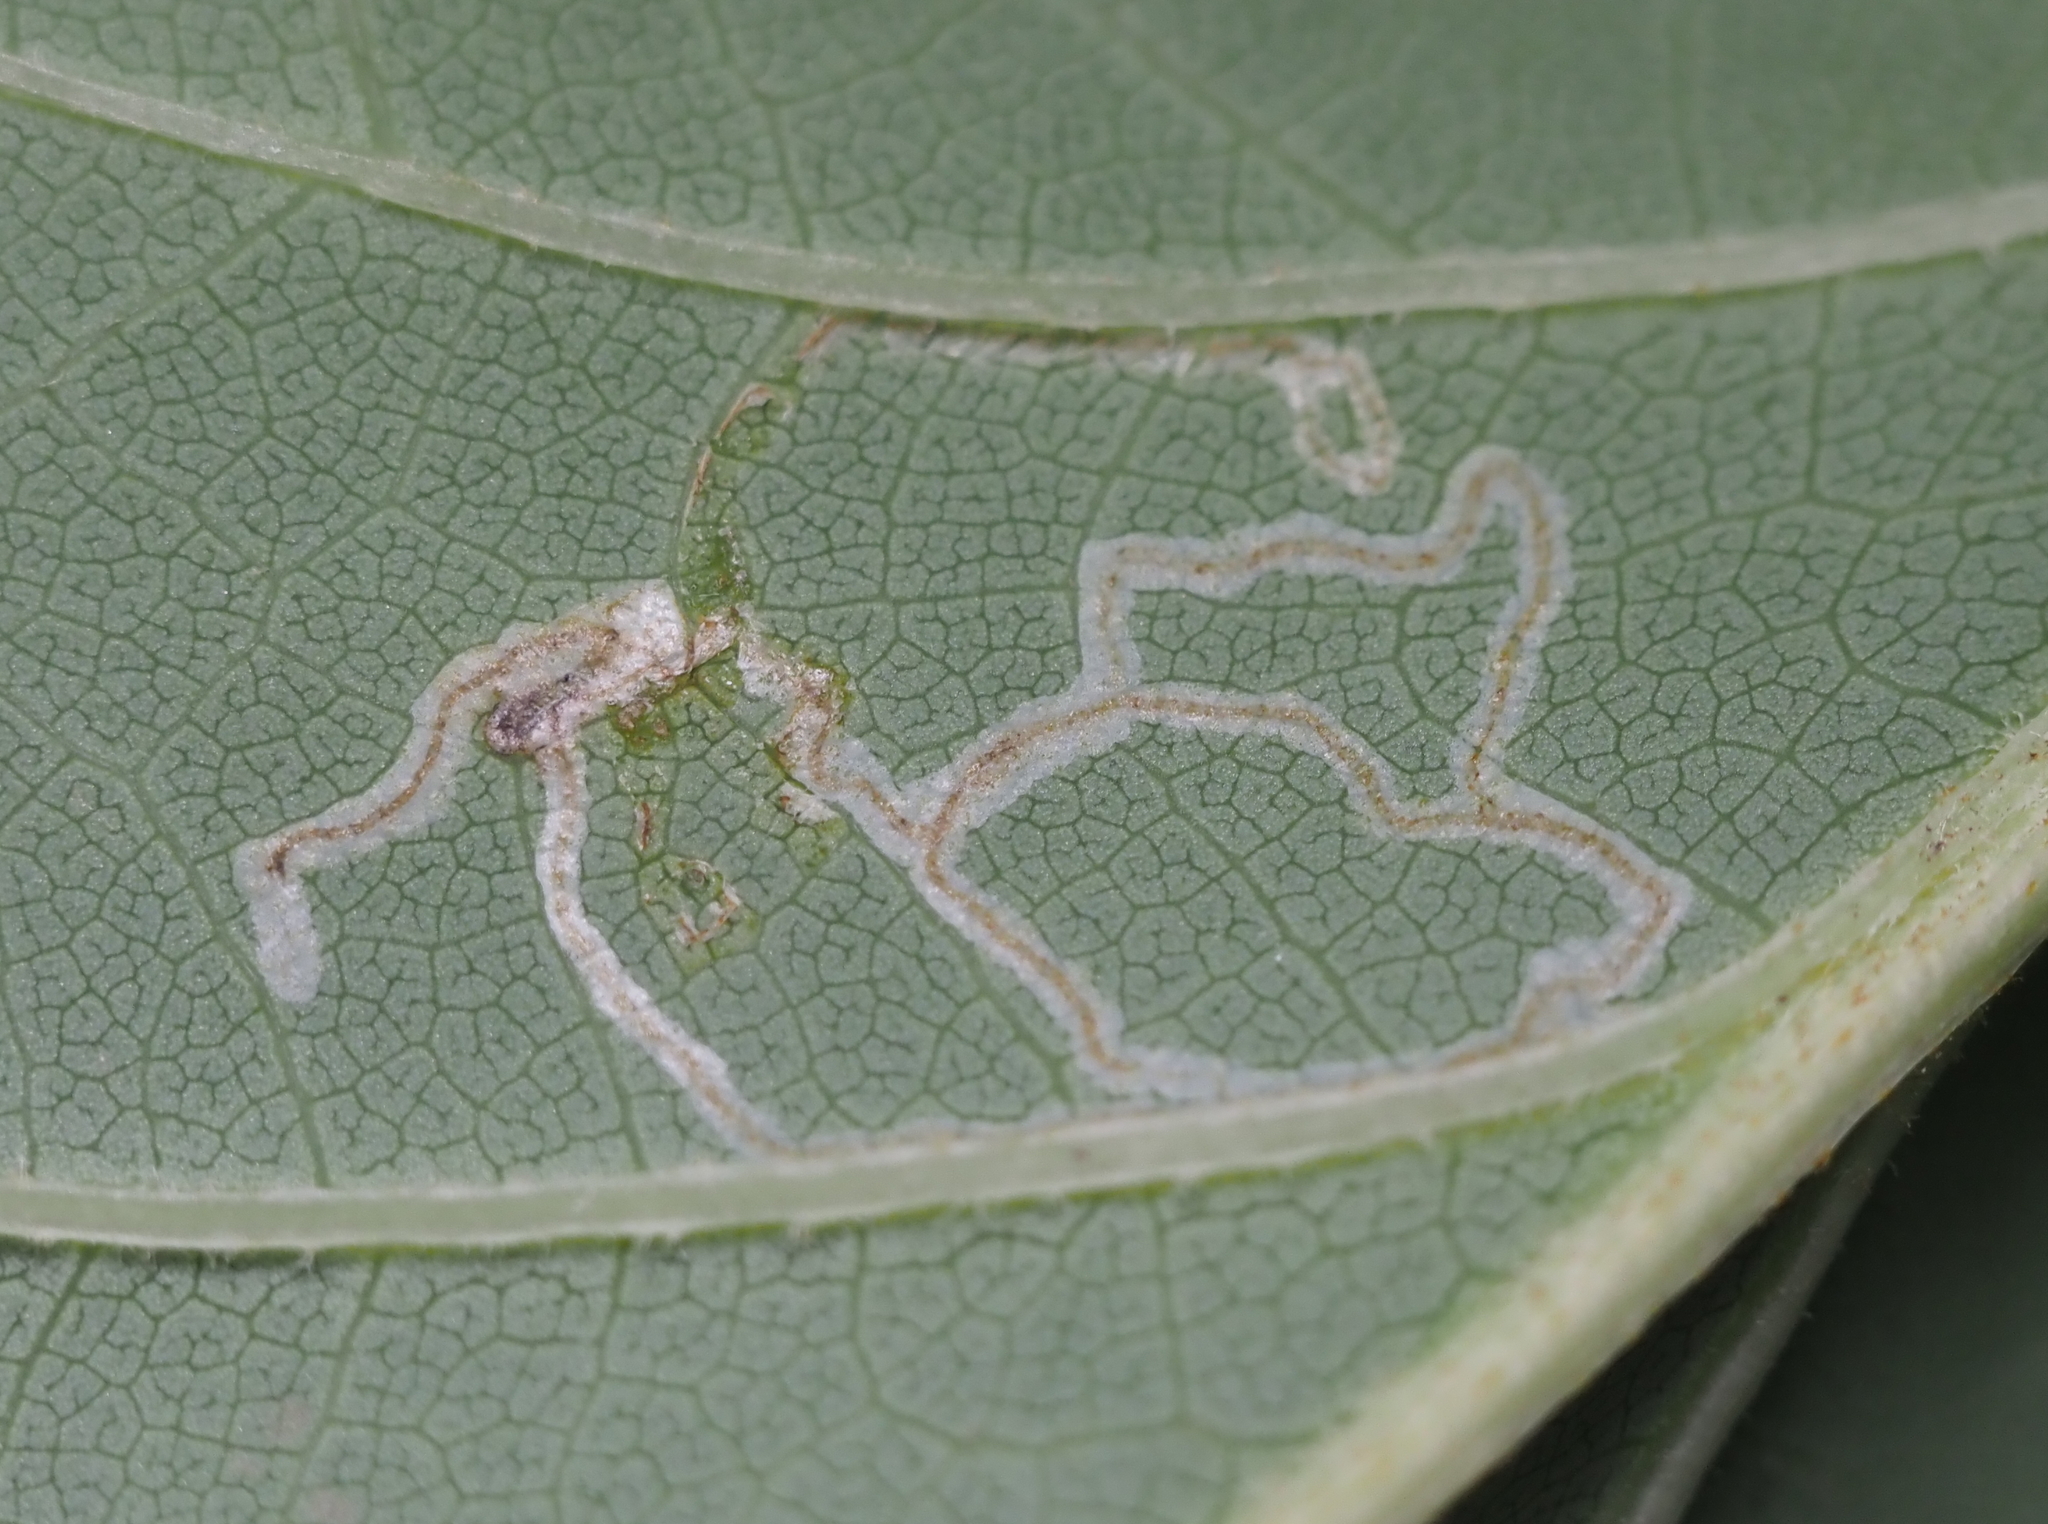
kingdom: Animalia
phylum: Arthropoda
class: Insecta
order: Lepidoptera
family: Gracillariidae
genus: Phyllocnistis
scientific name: Phyllocnistis liriodendronella
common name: Tulip tree leaf miner
